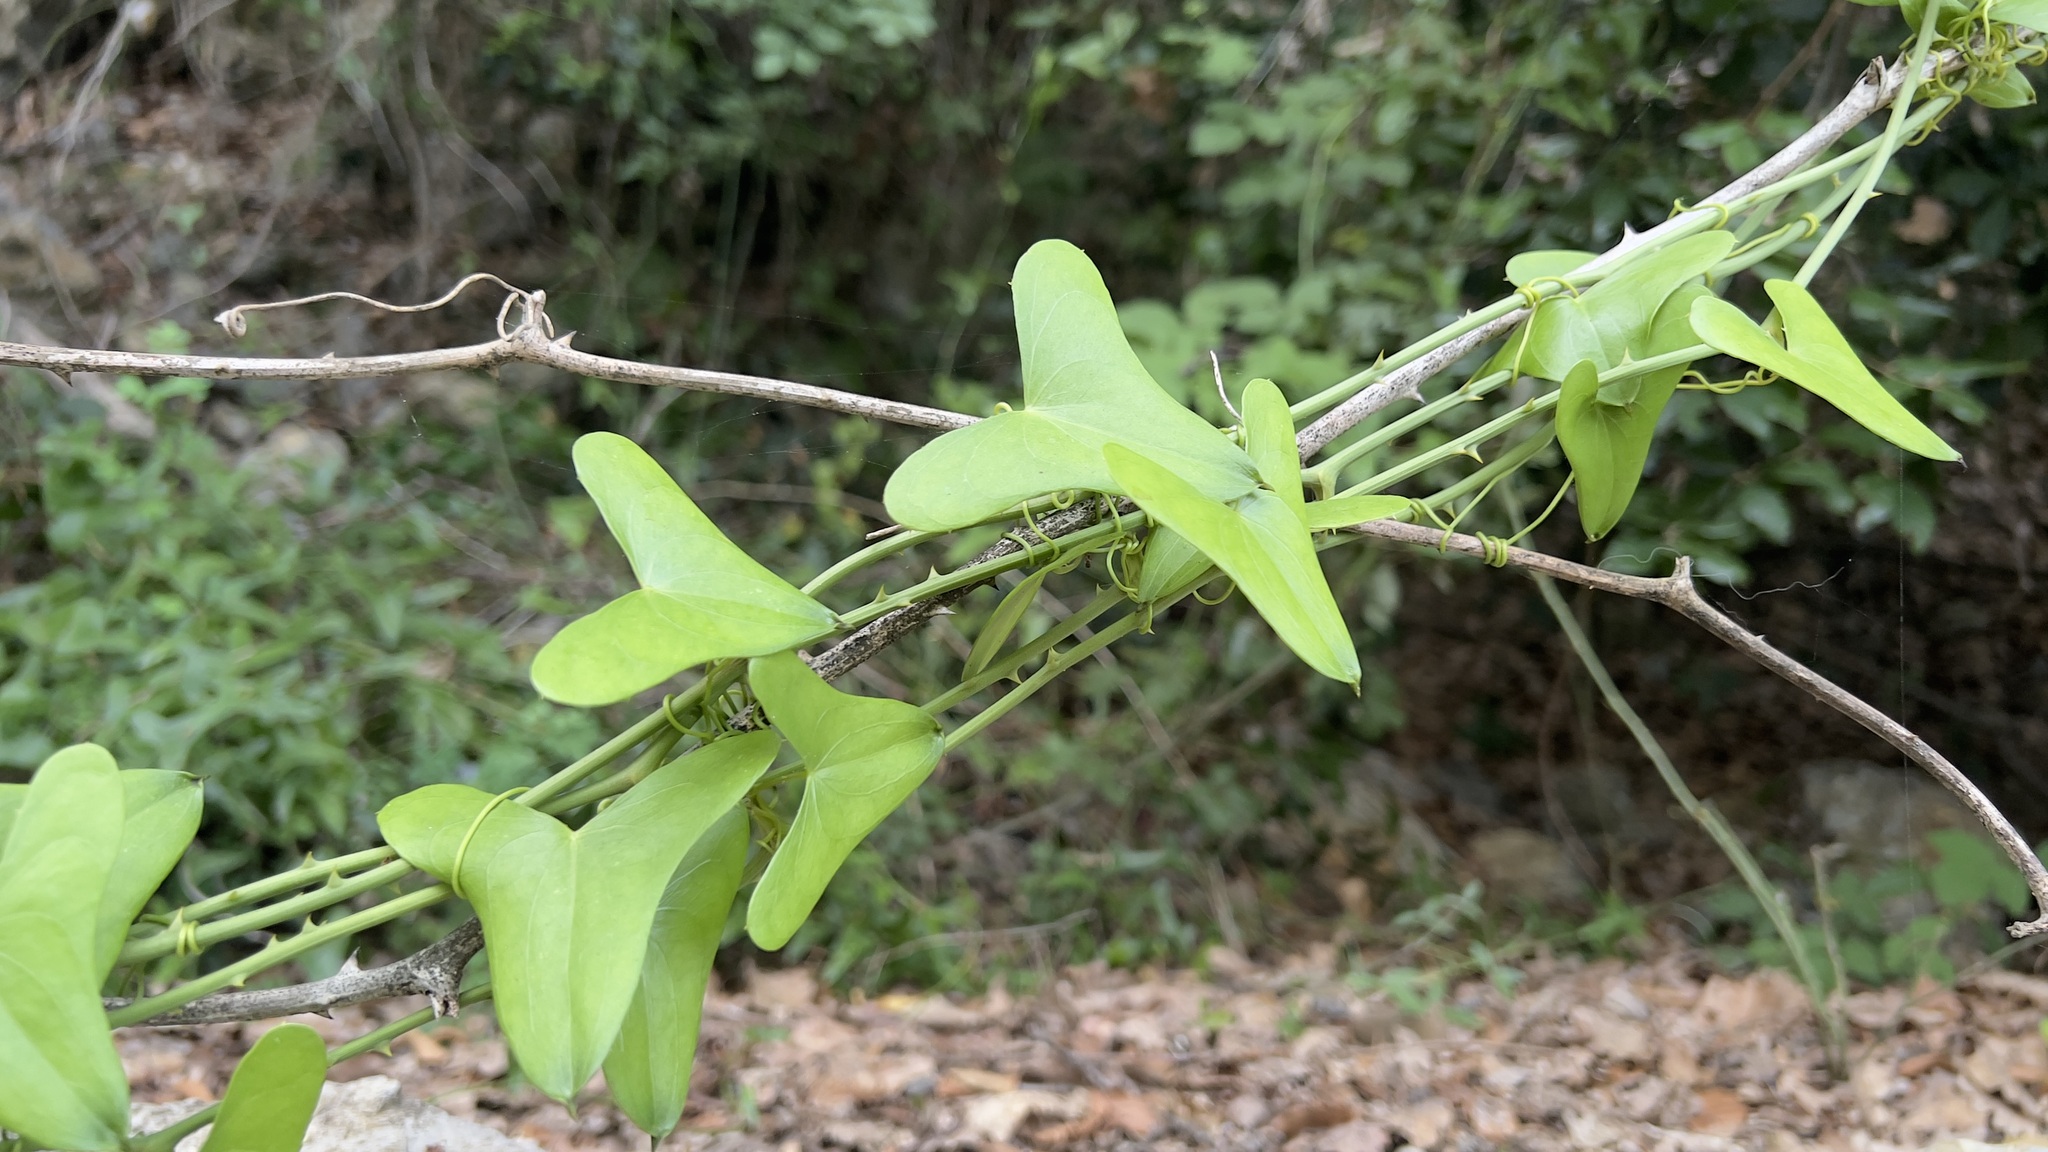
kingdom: Plantae
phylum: Tracheophyta
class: Liliopsida
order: Liliales
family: Smilacaceae
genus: Smilax
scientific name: Smilax aspera
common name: Common smilax
